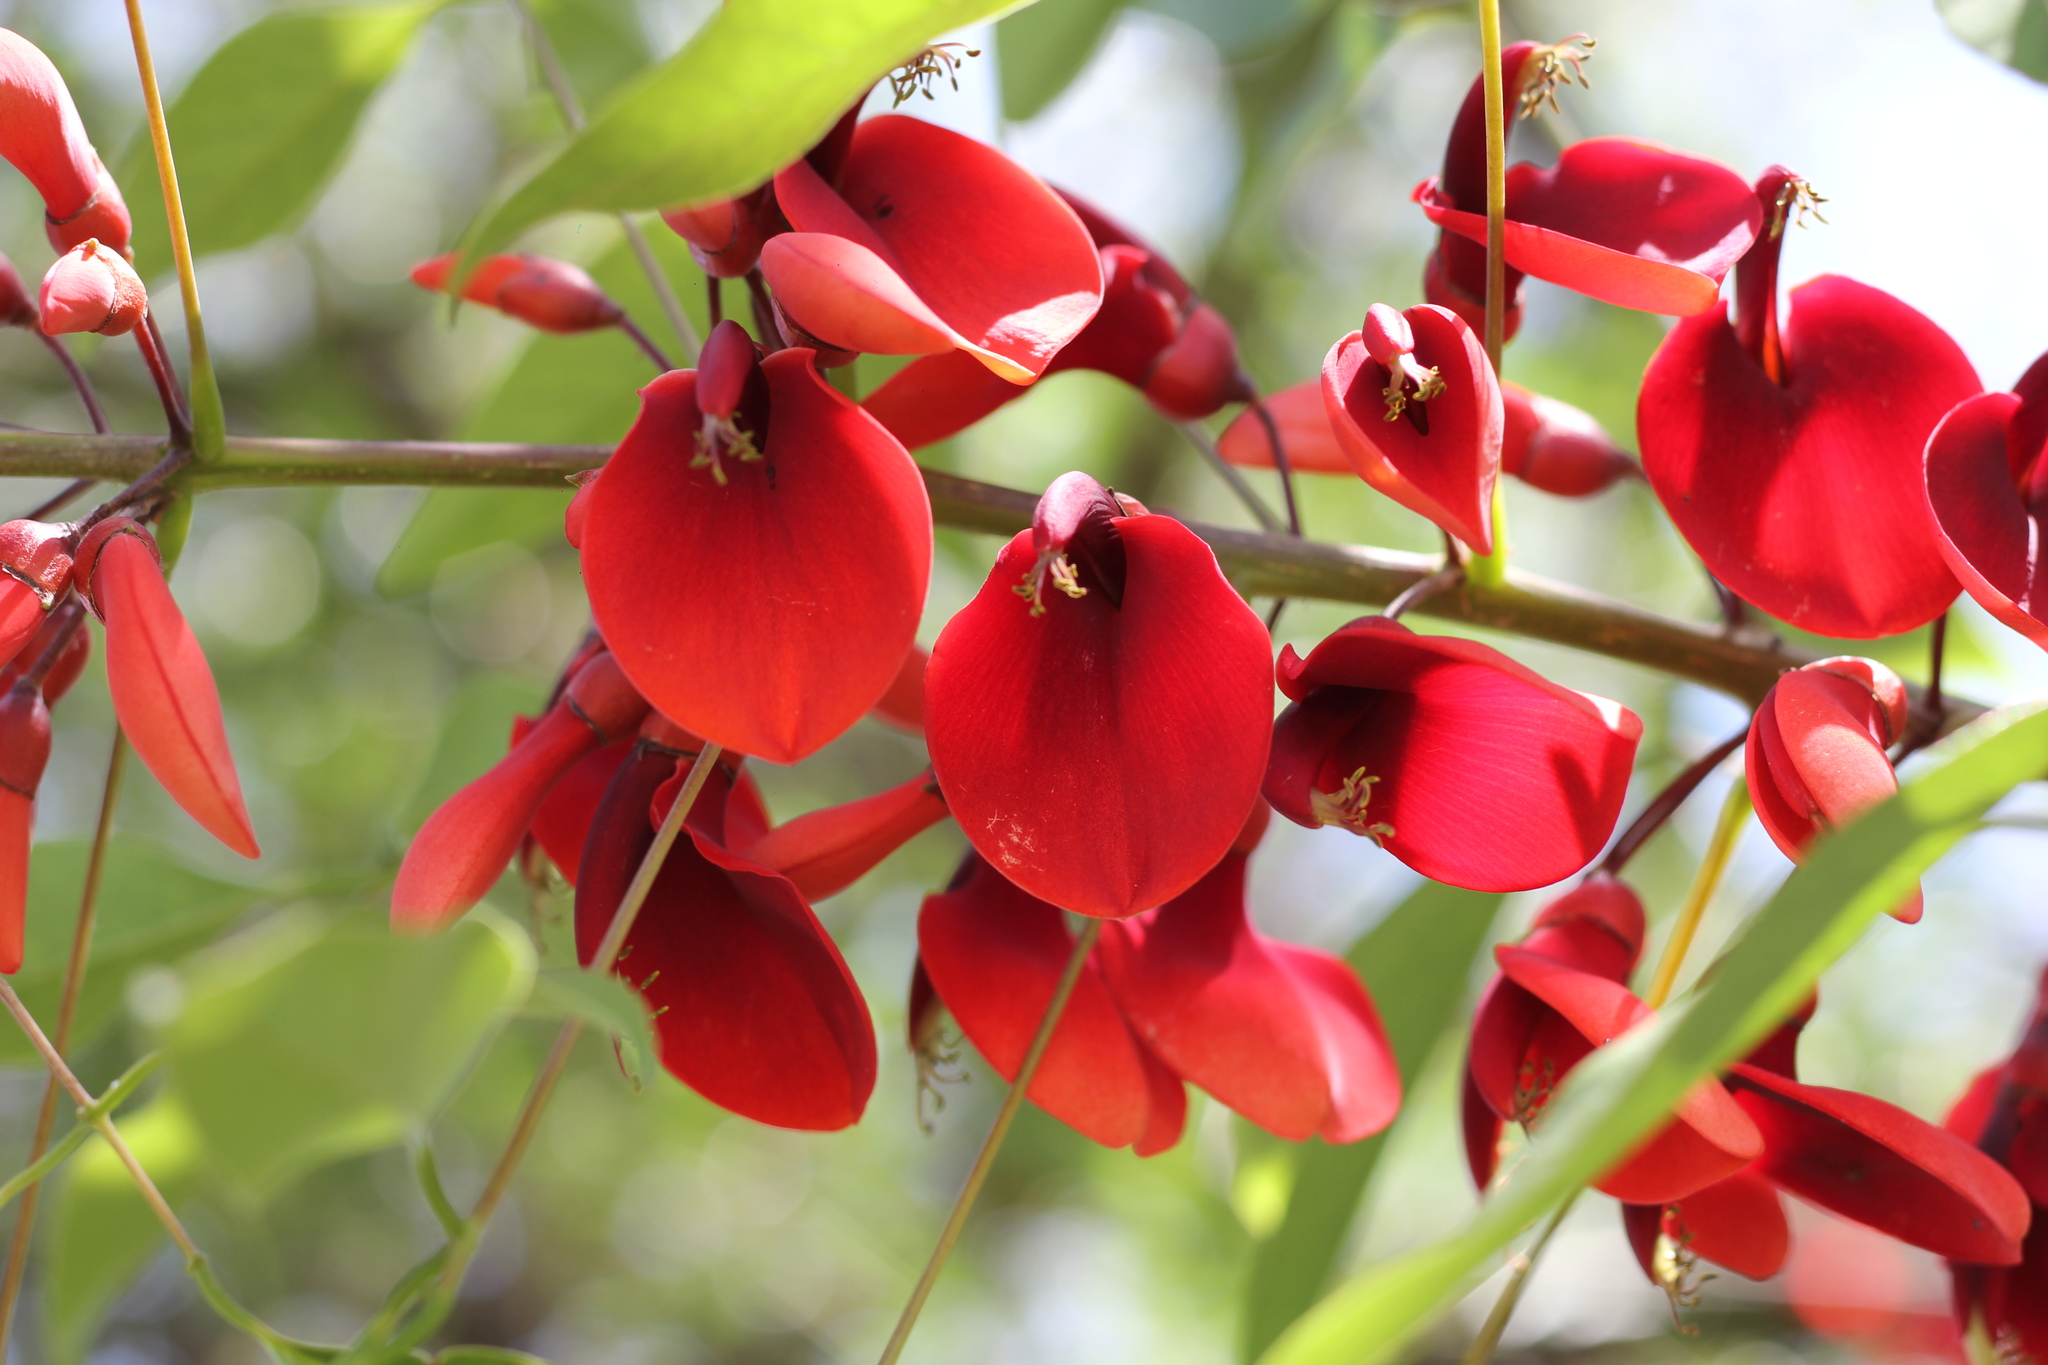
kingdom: Plantae
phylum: Tracheophyta
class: Magnoliopsida
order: Fabales
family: Fabaceae
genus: Erythrina
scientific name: Erythrina crista-galli
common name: Cockspur coral tree
